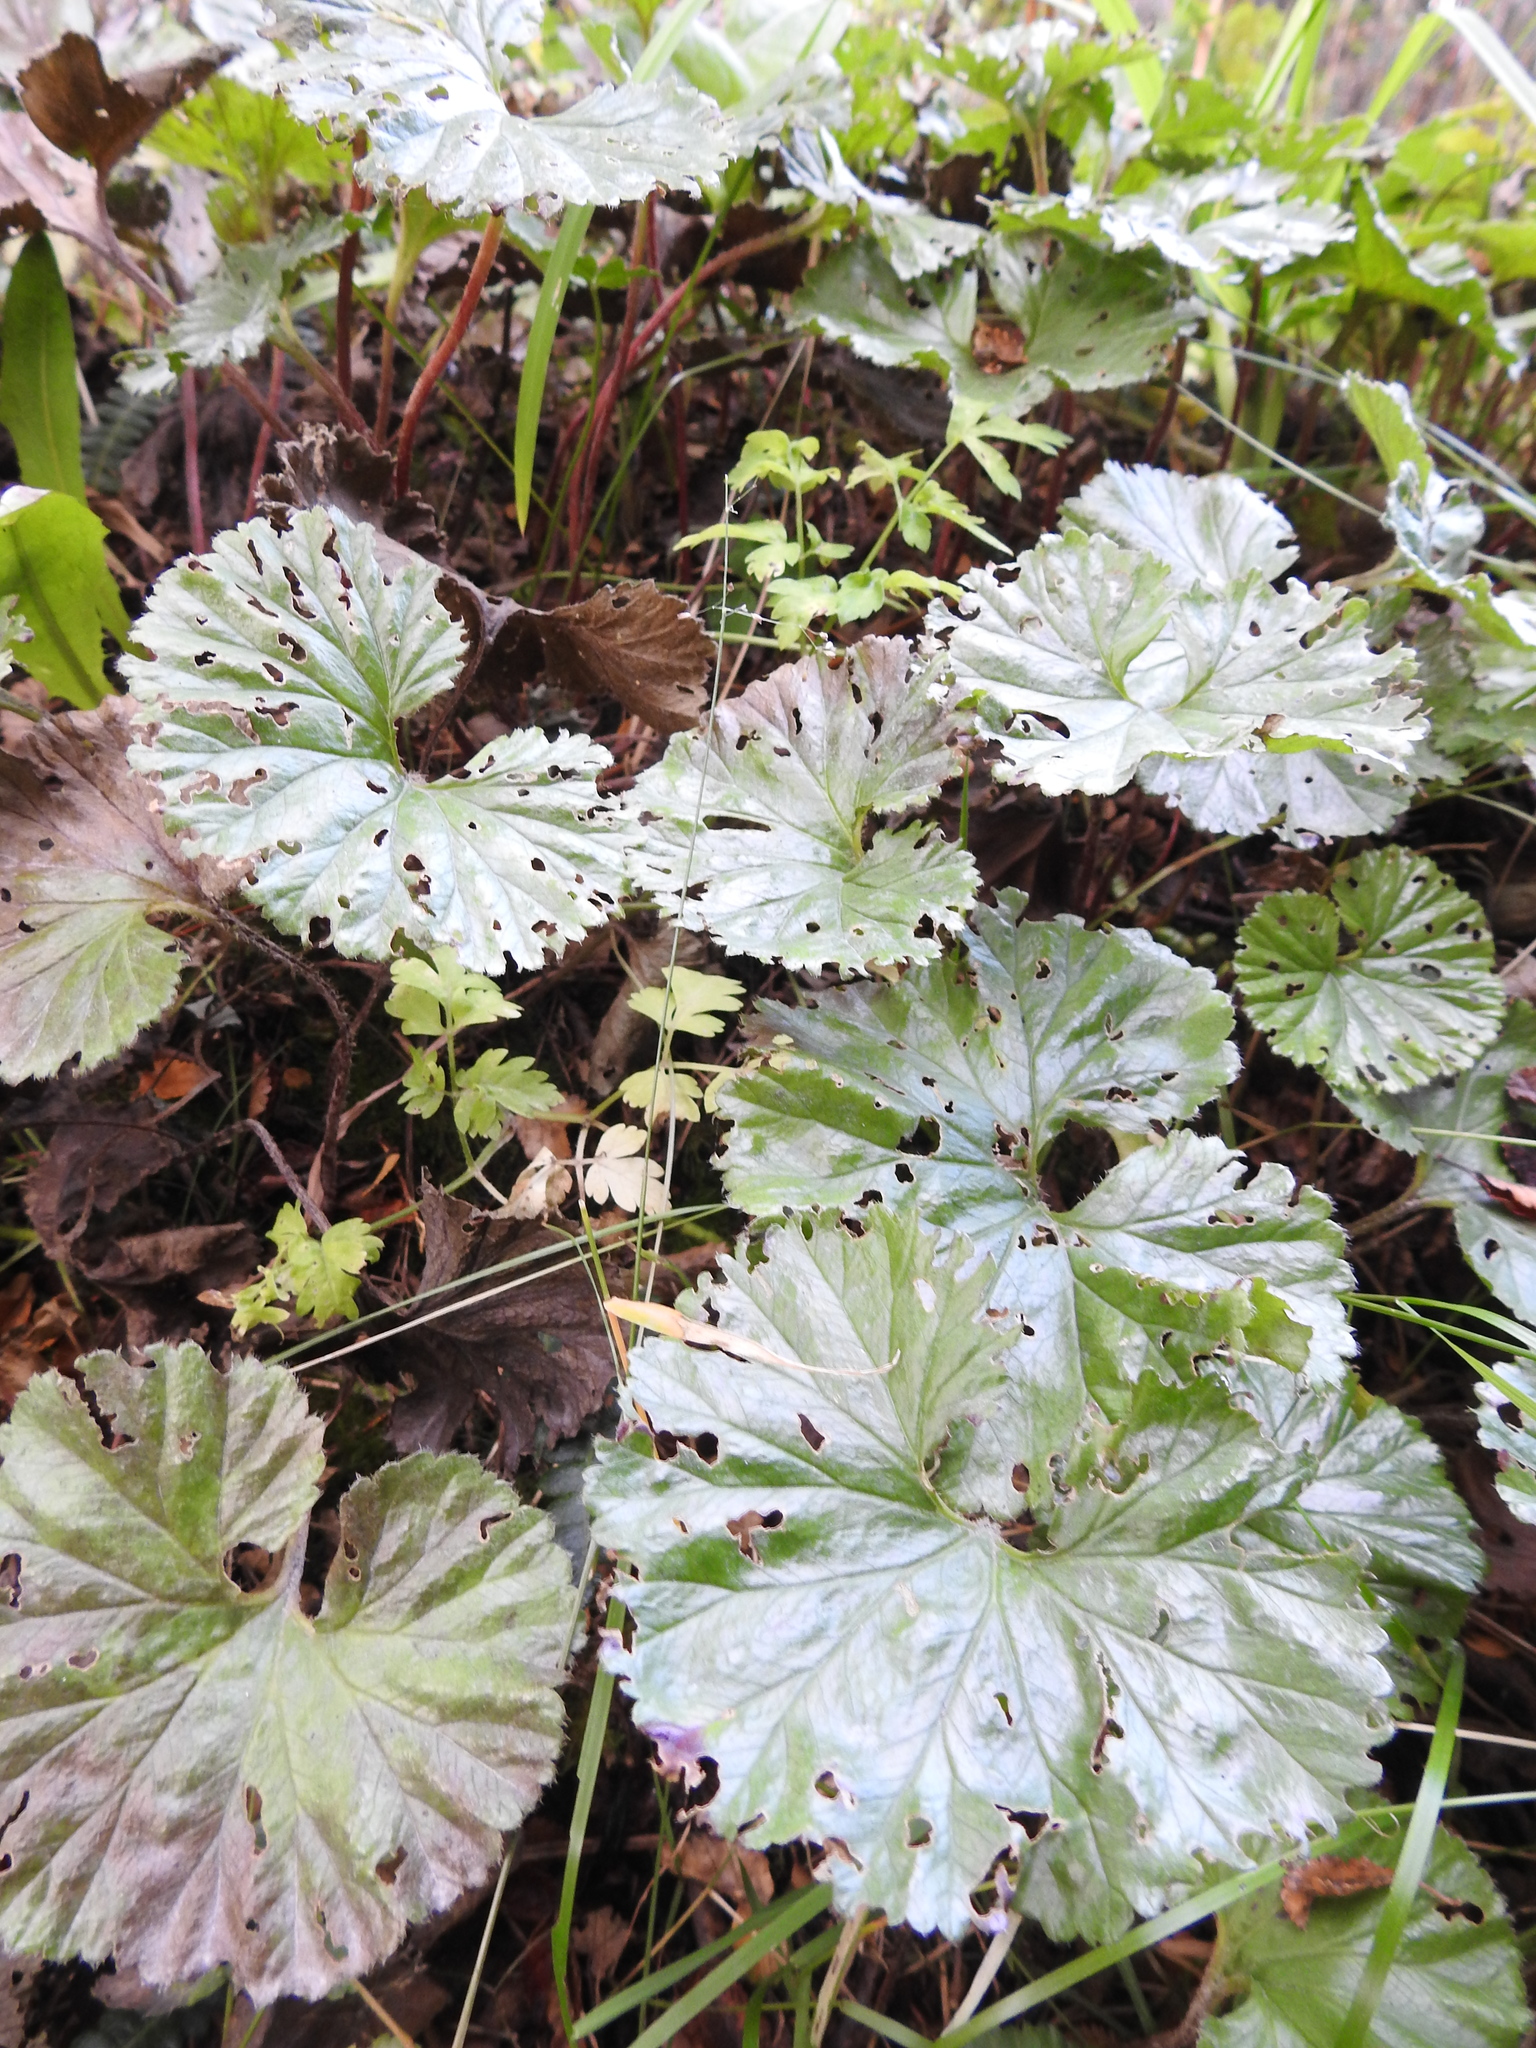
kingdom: Plantae
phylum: Tracheophyta
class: Magnoliopsida
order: Gunnerales
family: Gunneraceae
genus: Gunnera
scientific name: Gunnera magellanica
